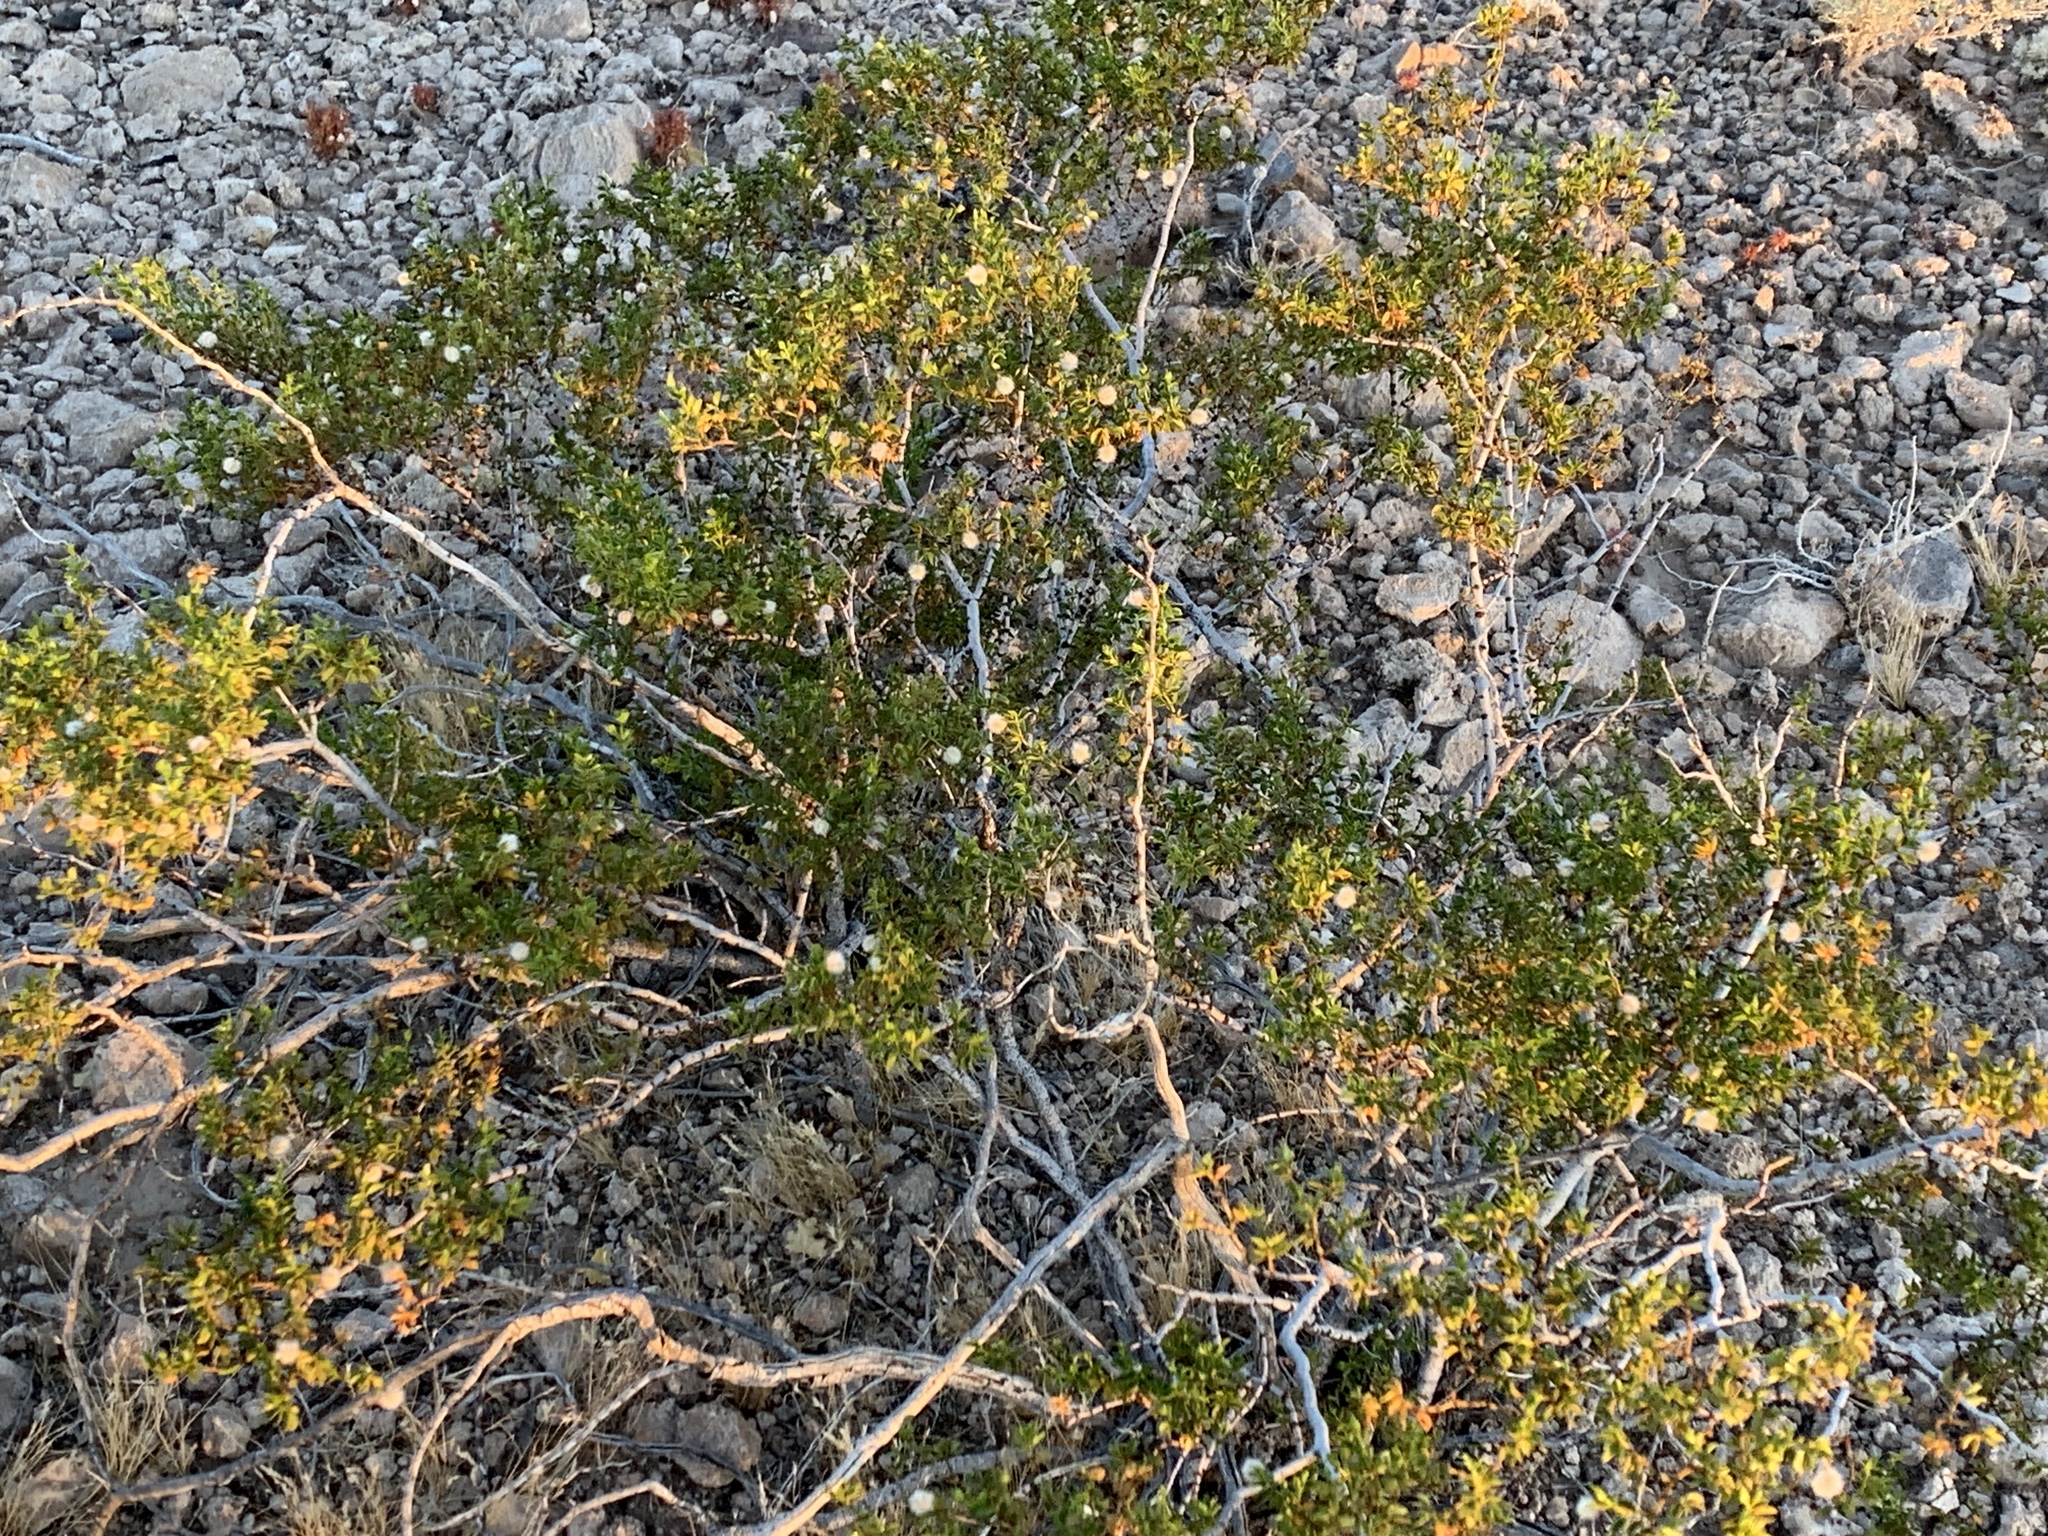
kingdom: Plantae
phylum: Tracheophyta
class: Magnoliopsida
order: Zygophyllales
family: Zygophyllaceae
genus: Larrea
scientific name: Larrea tridentata
